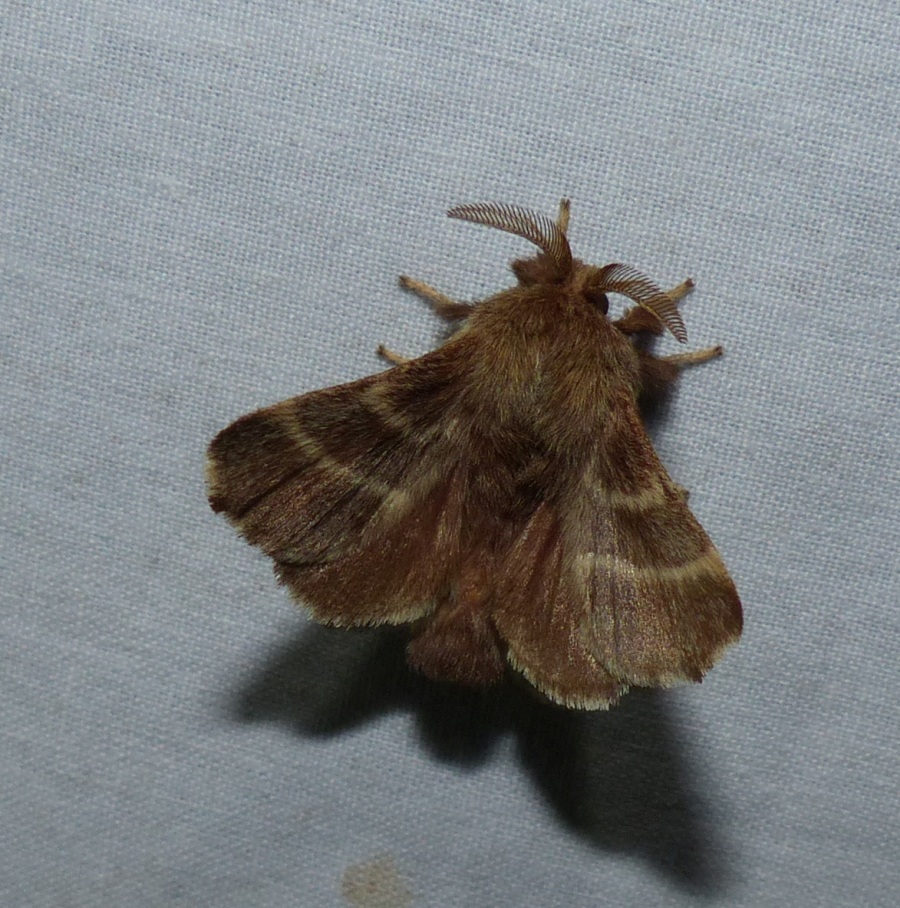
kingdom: Animalia
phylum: Arthropoda
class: Insecta
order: Lepidoptera
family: Lasiocampidae
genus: Malacosoma
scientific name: Malacosoma americana
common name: Eastern tent caterpillar moth
